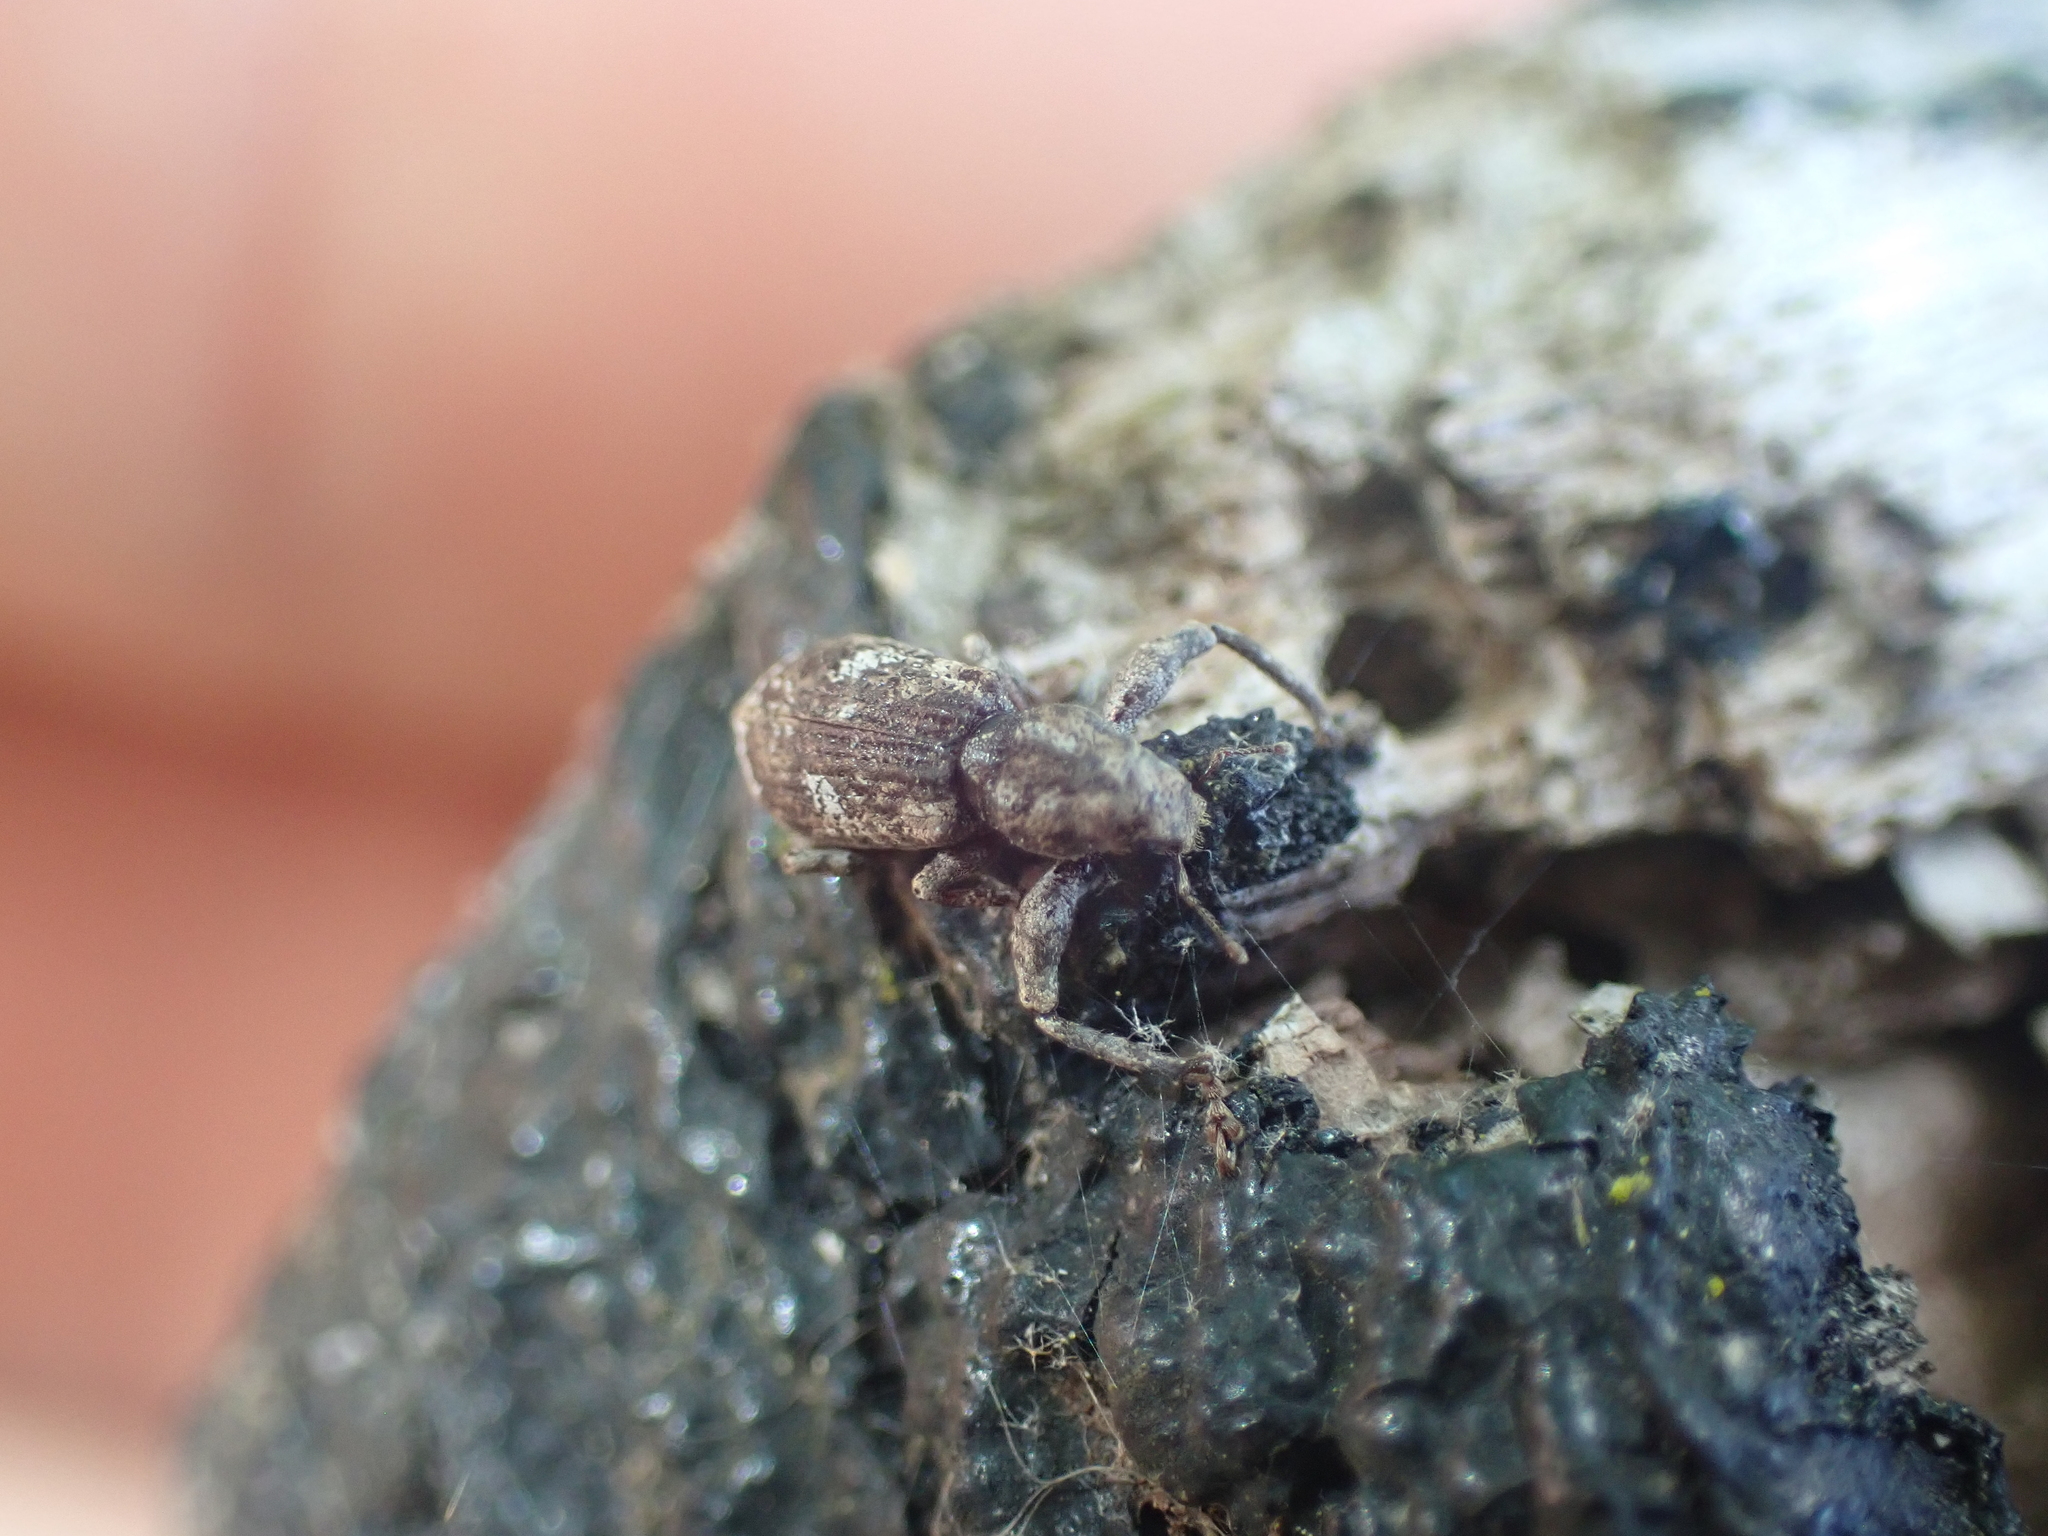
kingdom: Animalia
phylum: Arthropoda
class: Insecta
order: Coleoptera
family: Curculionidae
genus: Pandeleteius
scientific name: Pandeleteius hilaris
